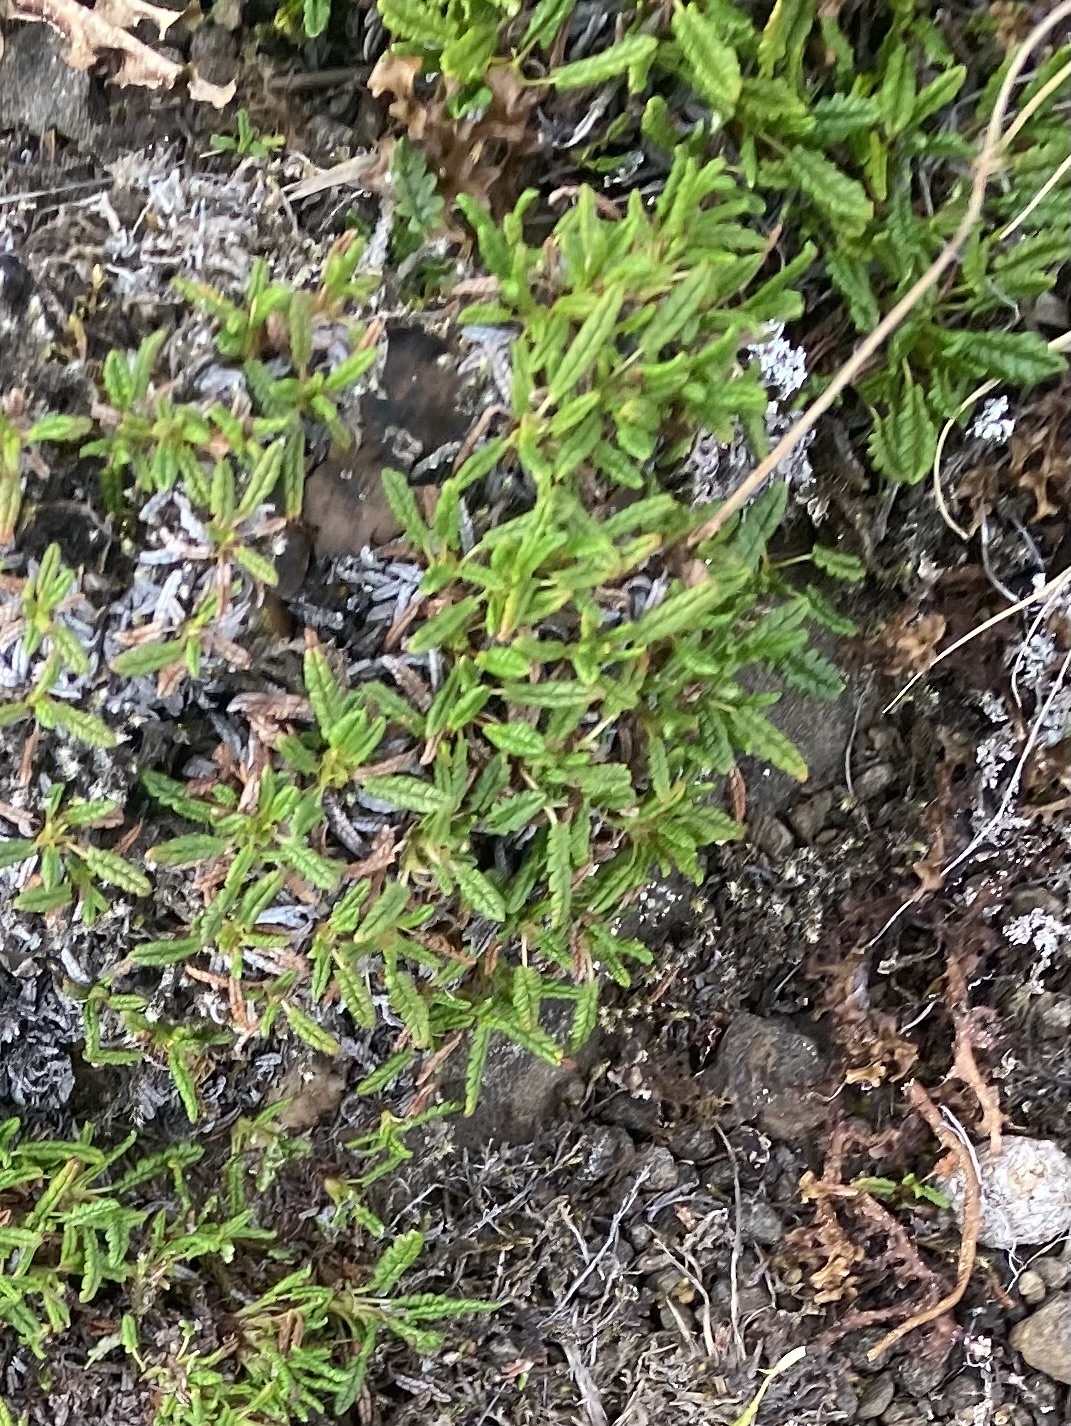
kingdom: Plantae
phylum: Tracheophyta
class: Magnoliopsida
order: Rosales
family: Rosaceae
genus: Dryas
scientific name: Dryas octopetala
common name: Eight-petal mountain-avens
